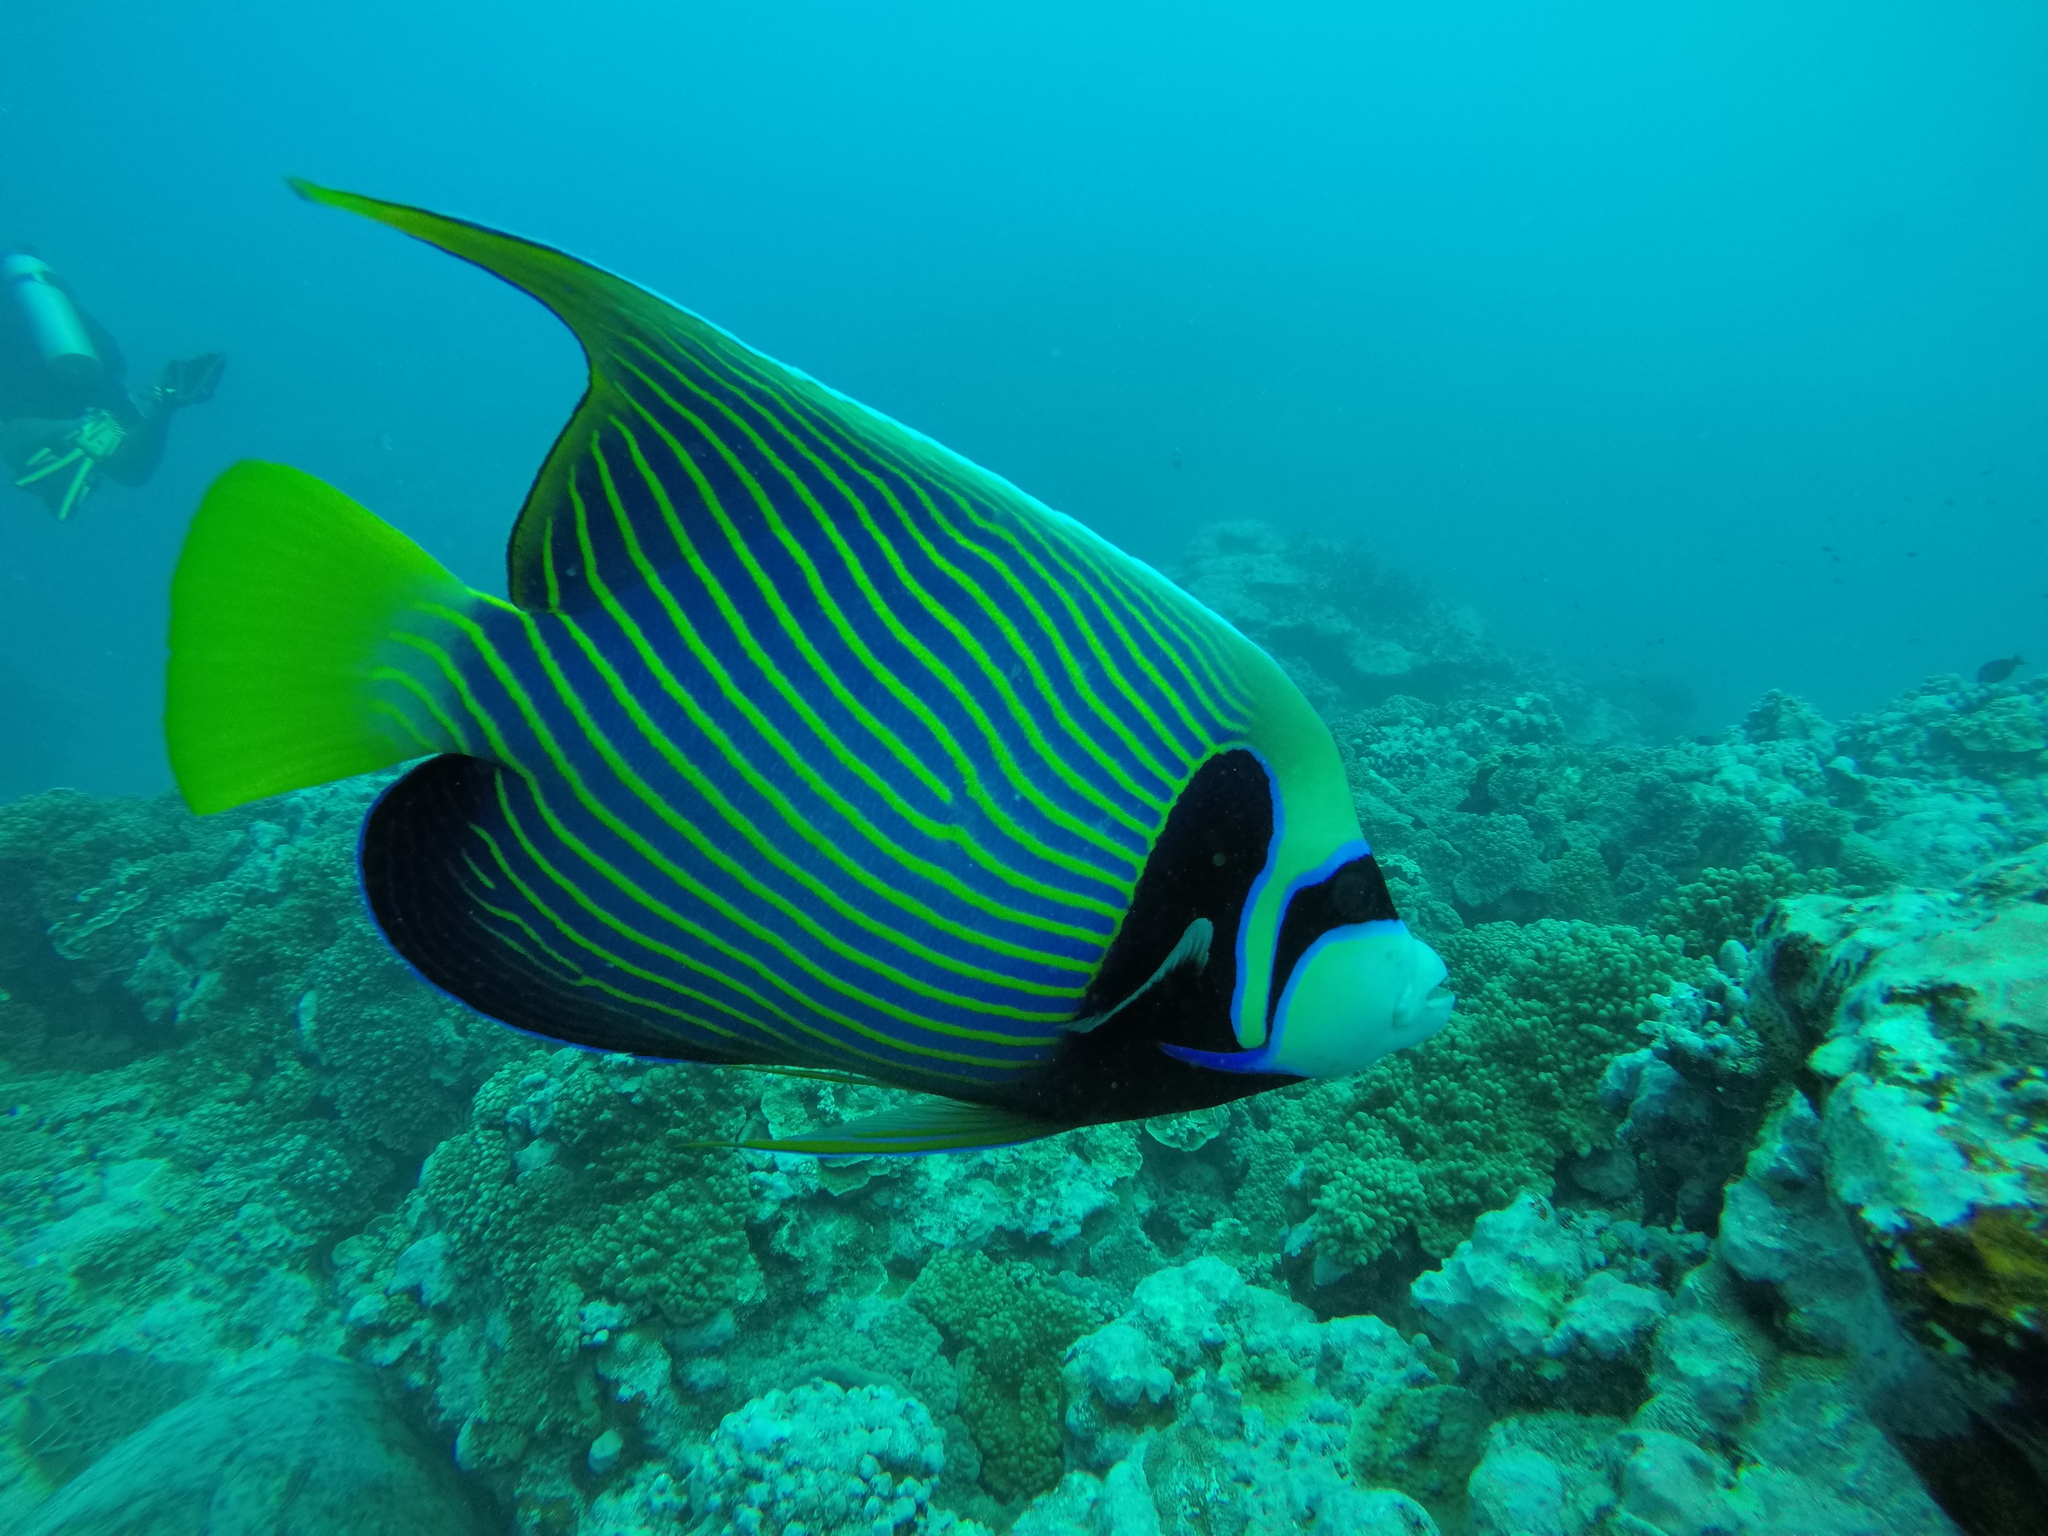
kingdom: Animalia
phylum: Chordata
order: Perciformes
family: Pomacanthidae
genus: Pomacanthus
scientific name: Pomacanthus imperator
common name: Emperor angelfish
